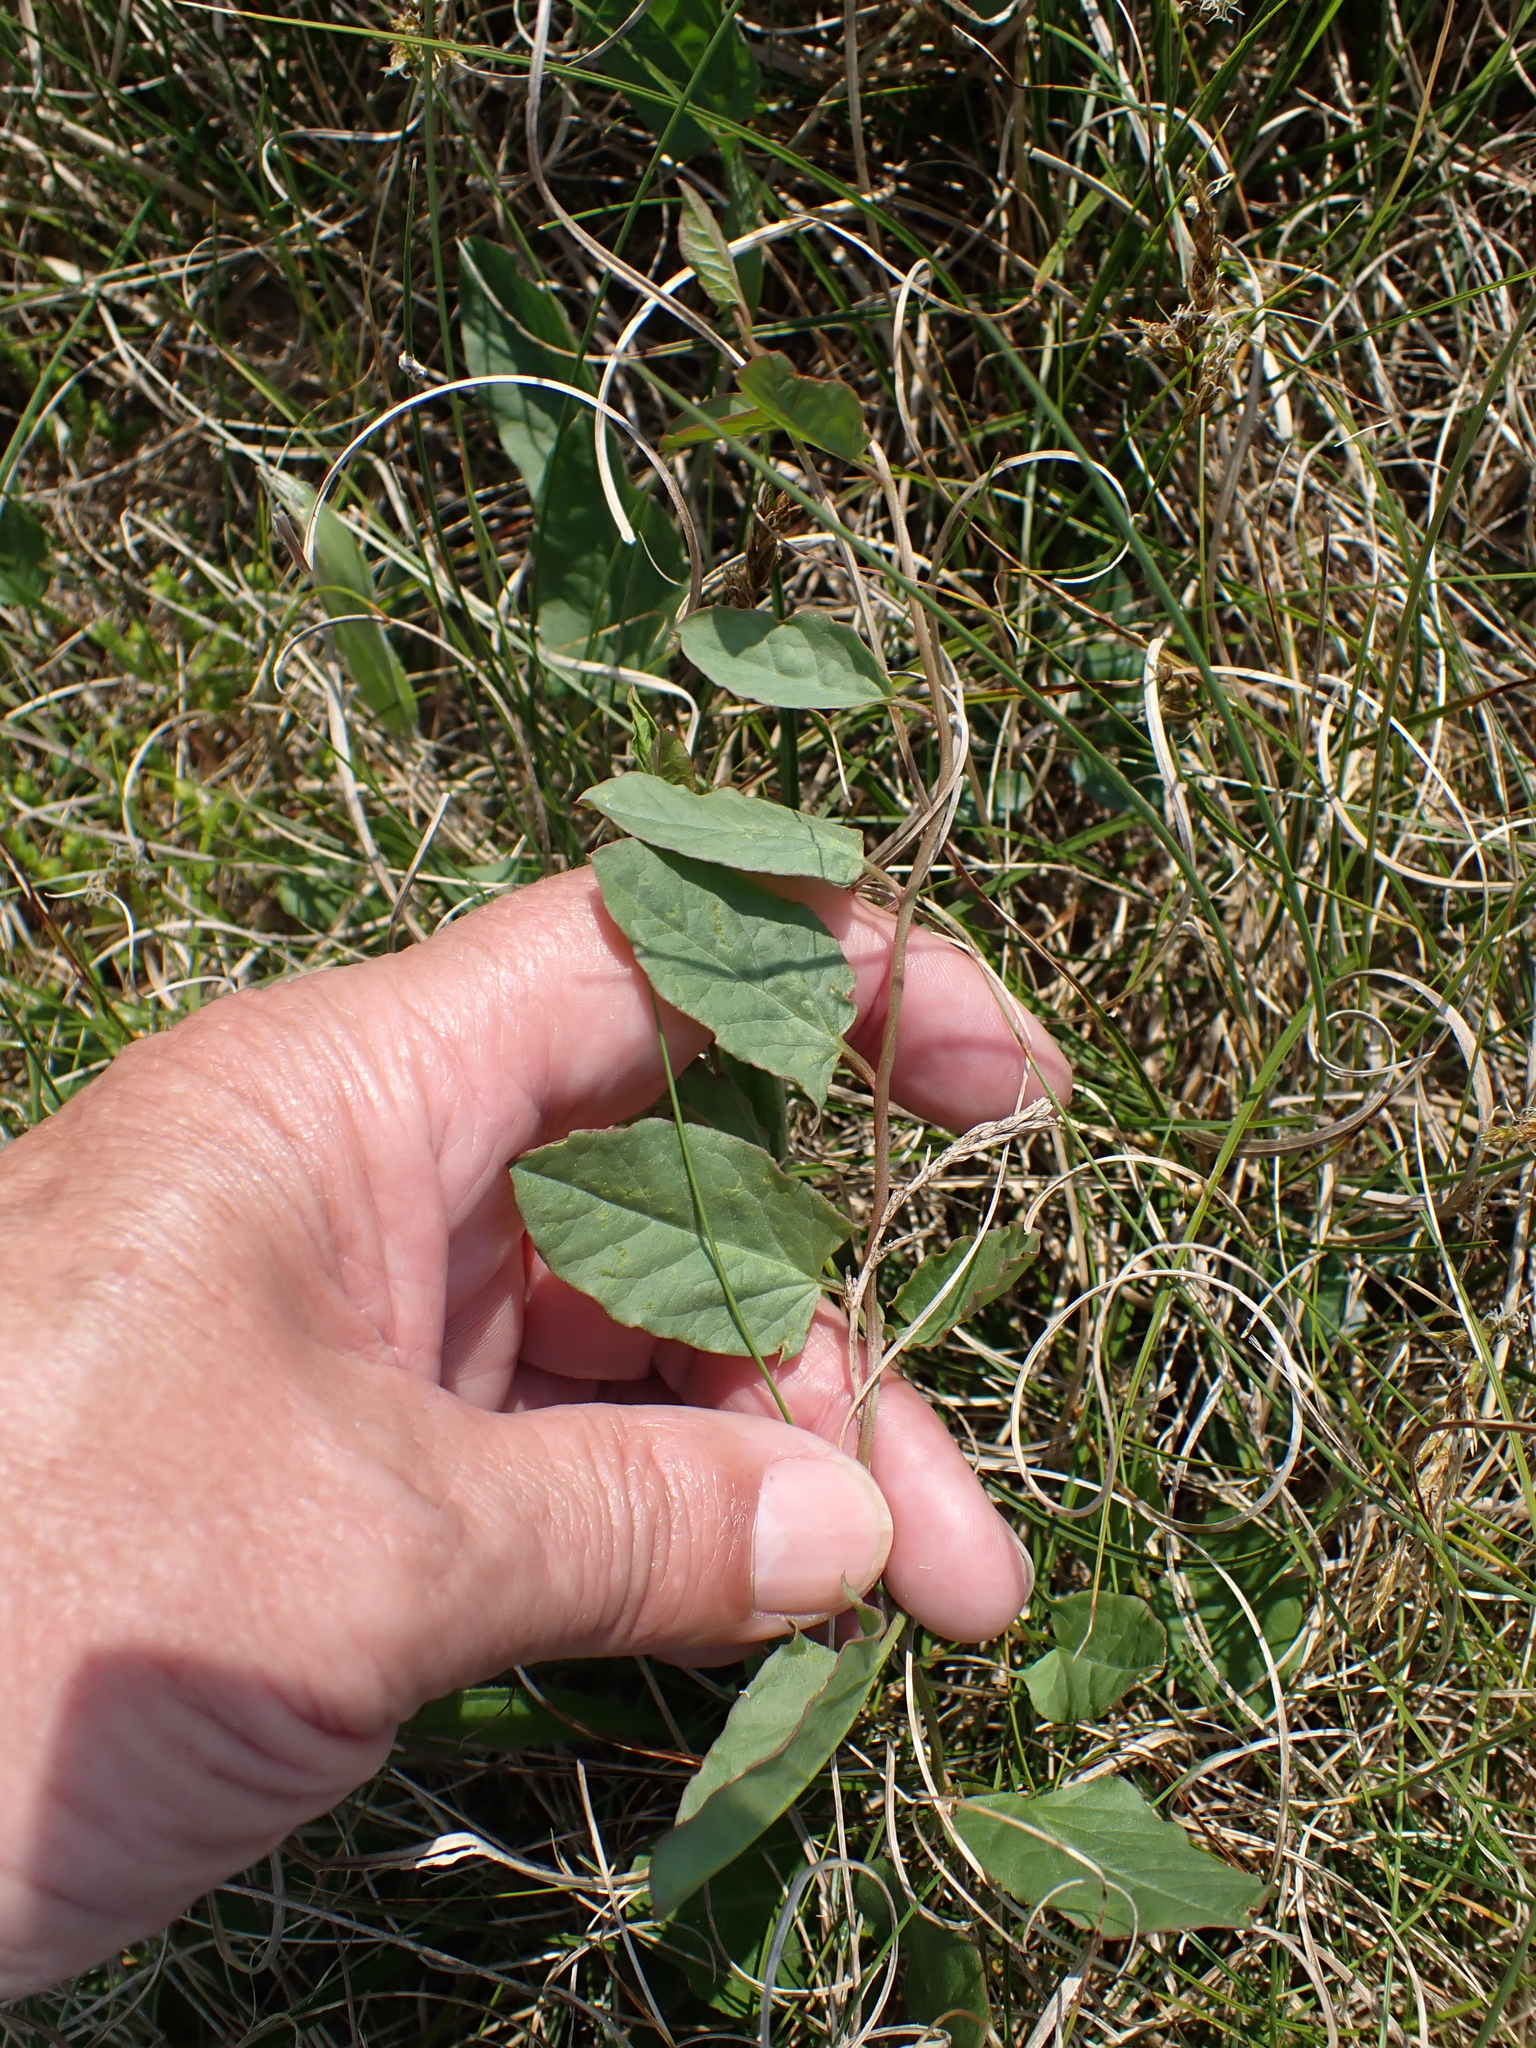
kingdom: Plantae
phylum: Tracheophyta
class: Magnoliopsida
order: Solanales
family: Convolvulaceae
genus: Convolvulus
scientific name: Convolvulus arvensis
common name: Field bindweed
